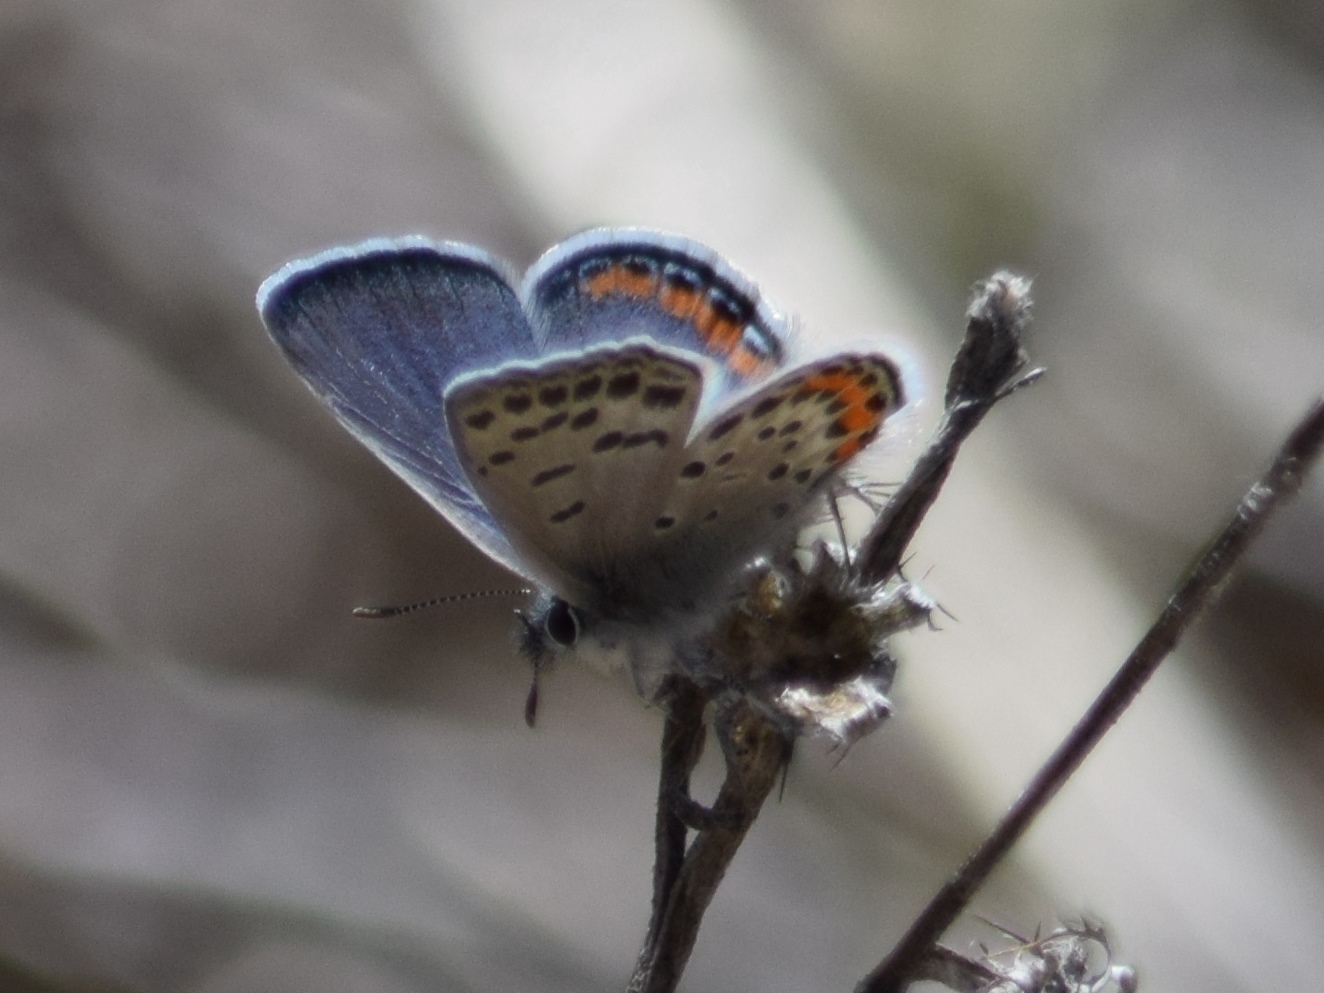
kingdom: Animalia
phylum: Arthropoda
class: Insecta
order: Lepidoptera
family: Lycaenidae
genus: Icaricia
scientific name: Icaricia acmon
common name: Acmon blue
